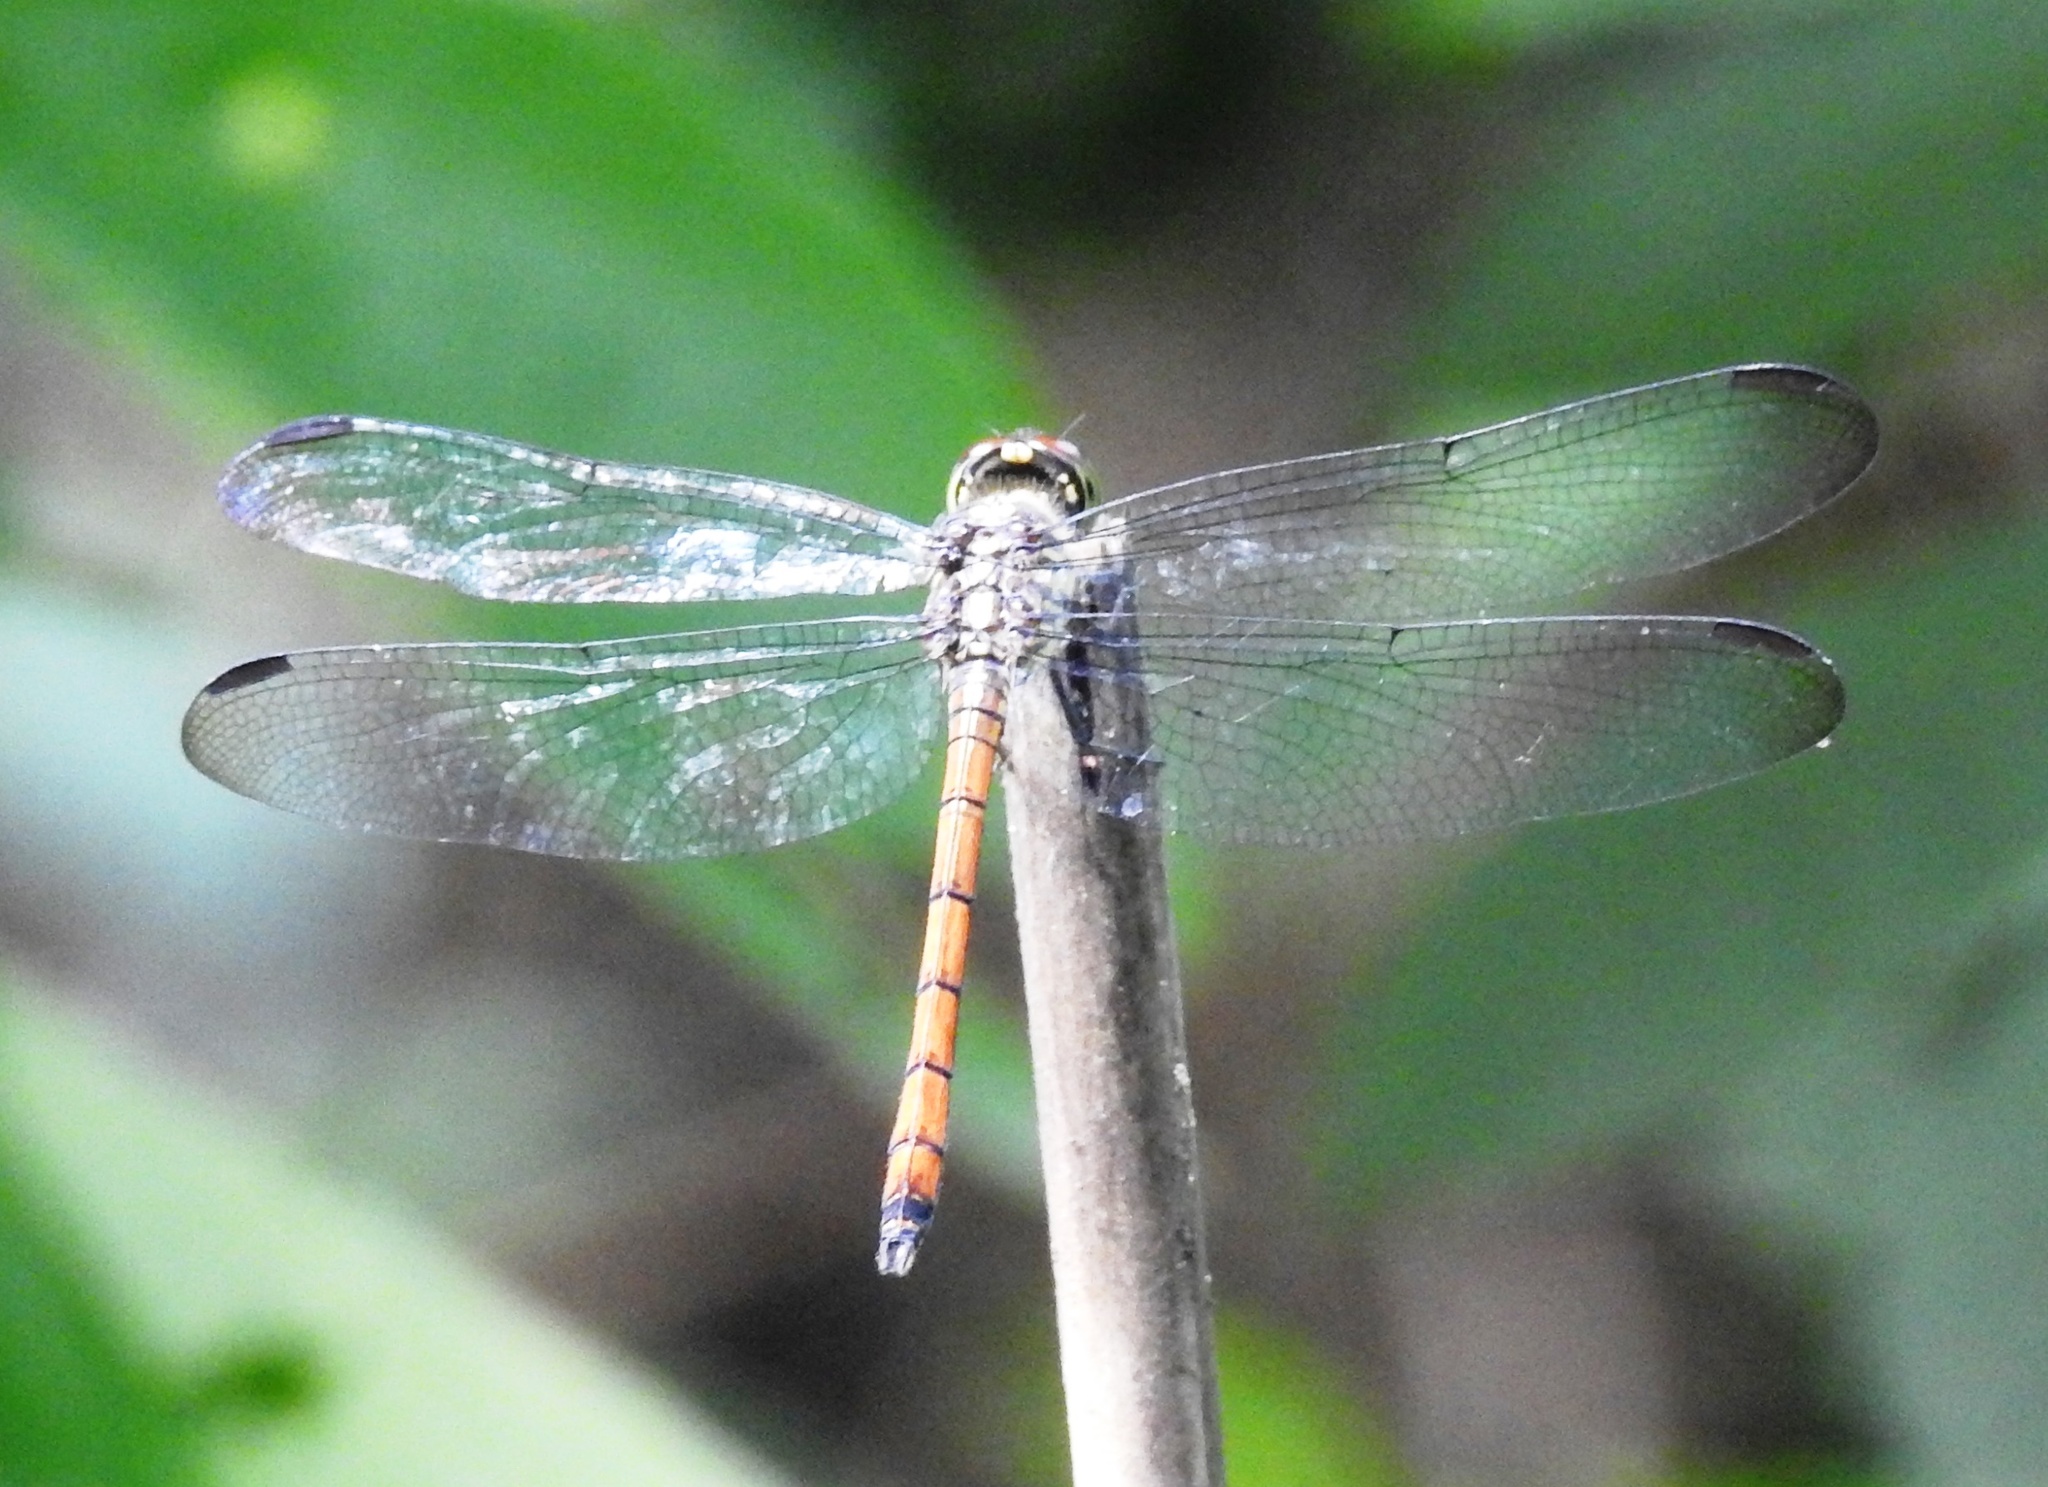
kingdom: Animalia
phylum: Arthropoda
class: Insecta
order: Odonata
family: Libellulidae
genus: Lathrecista
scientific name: Lathrecista asiatica
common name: Scarlet grenadier
